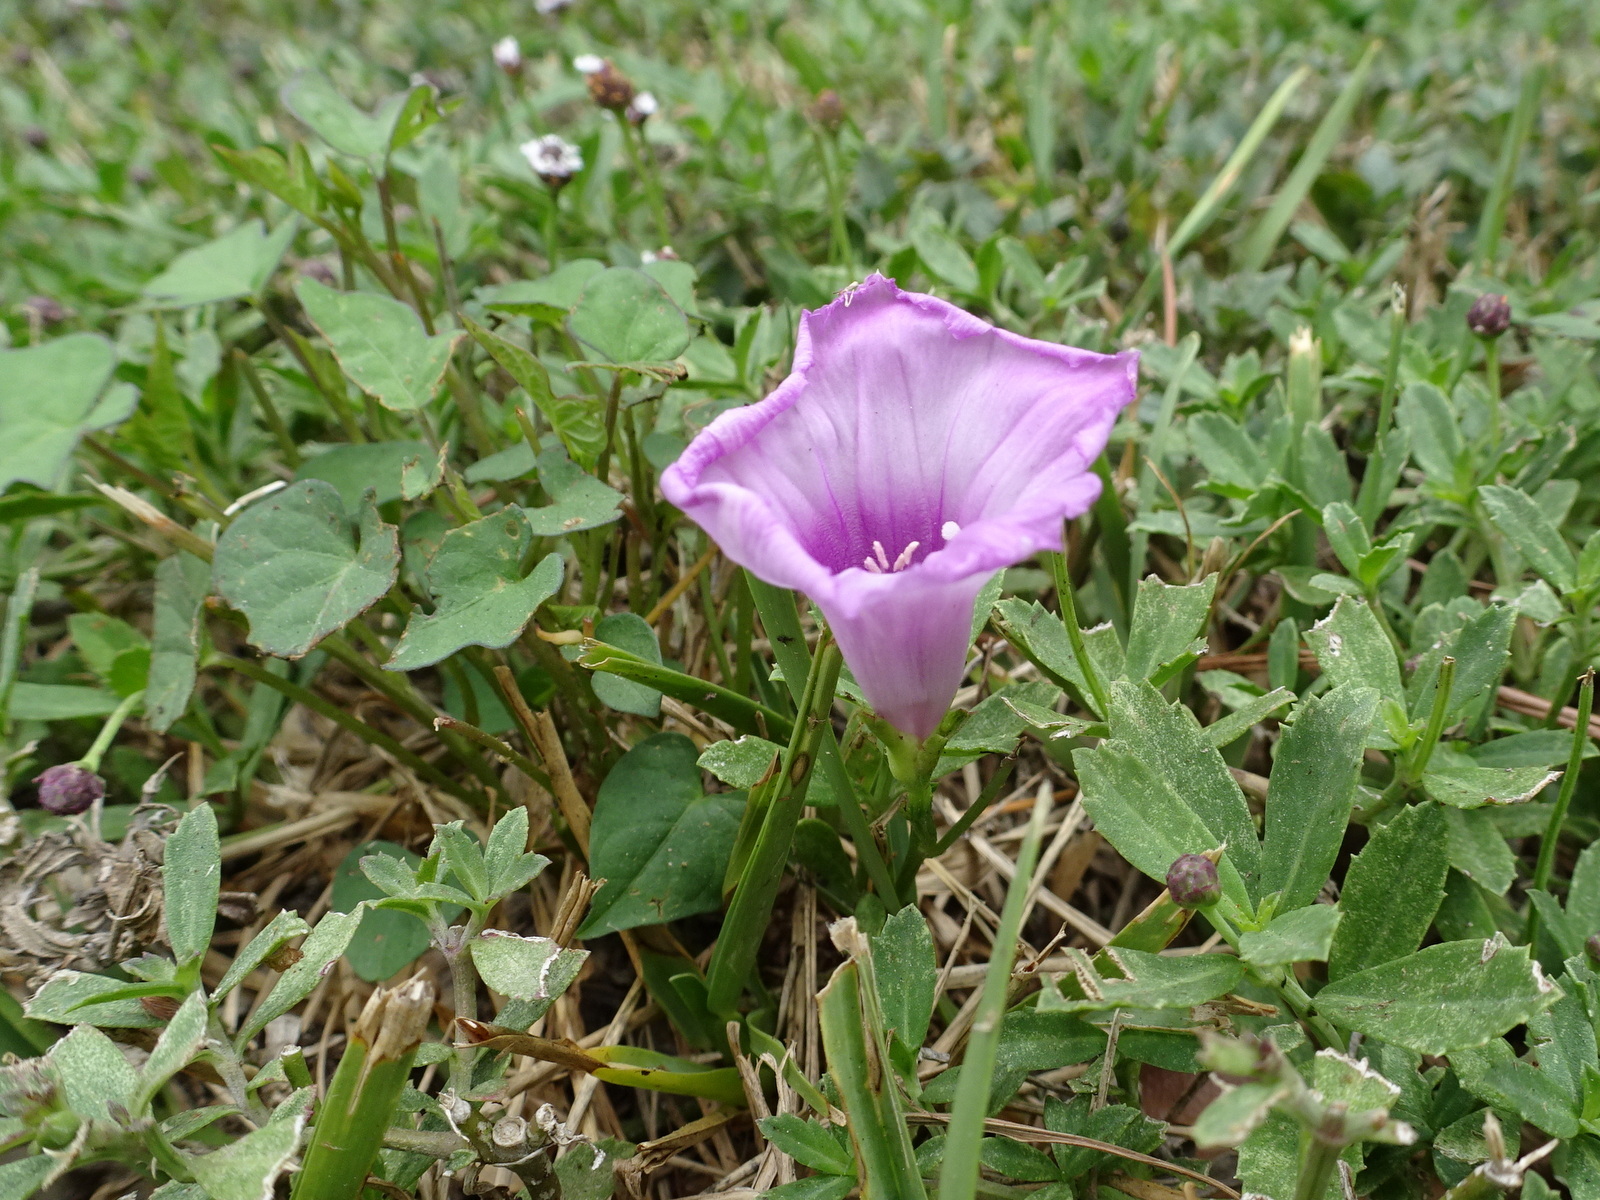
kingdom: Plantae
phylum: Tracheophyta
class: Magnoliopsida
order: Solanales
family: Convolvulaceae
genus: Ipomoea
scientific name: Ipomoea cordatotriloba
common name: Cotton morning glory
